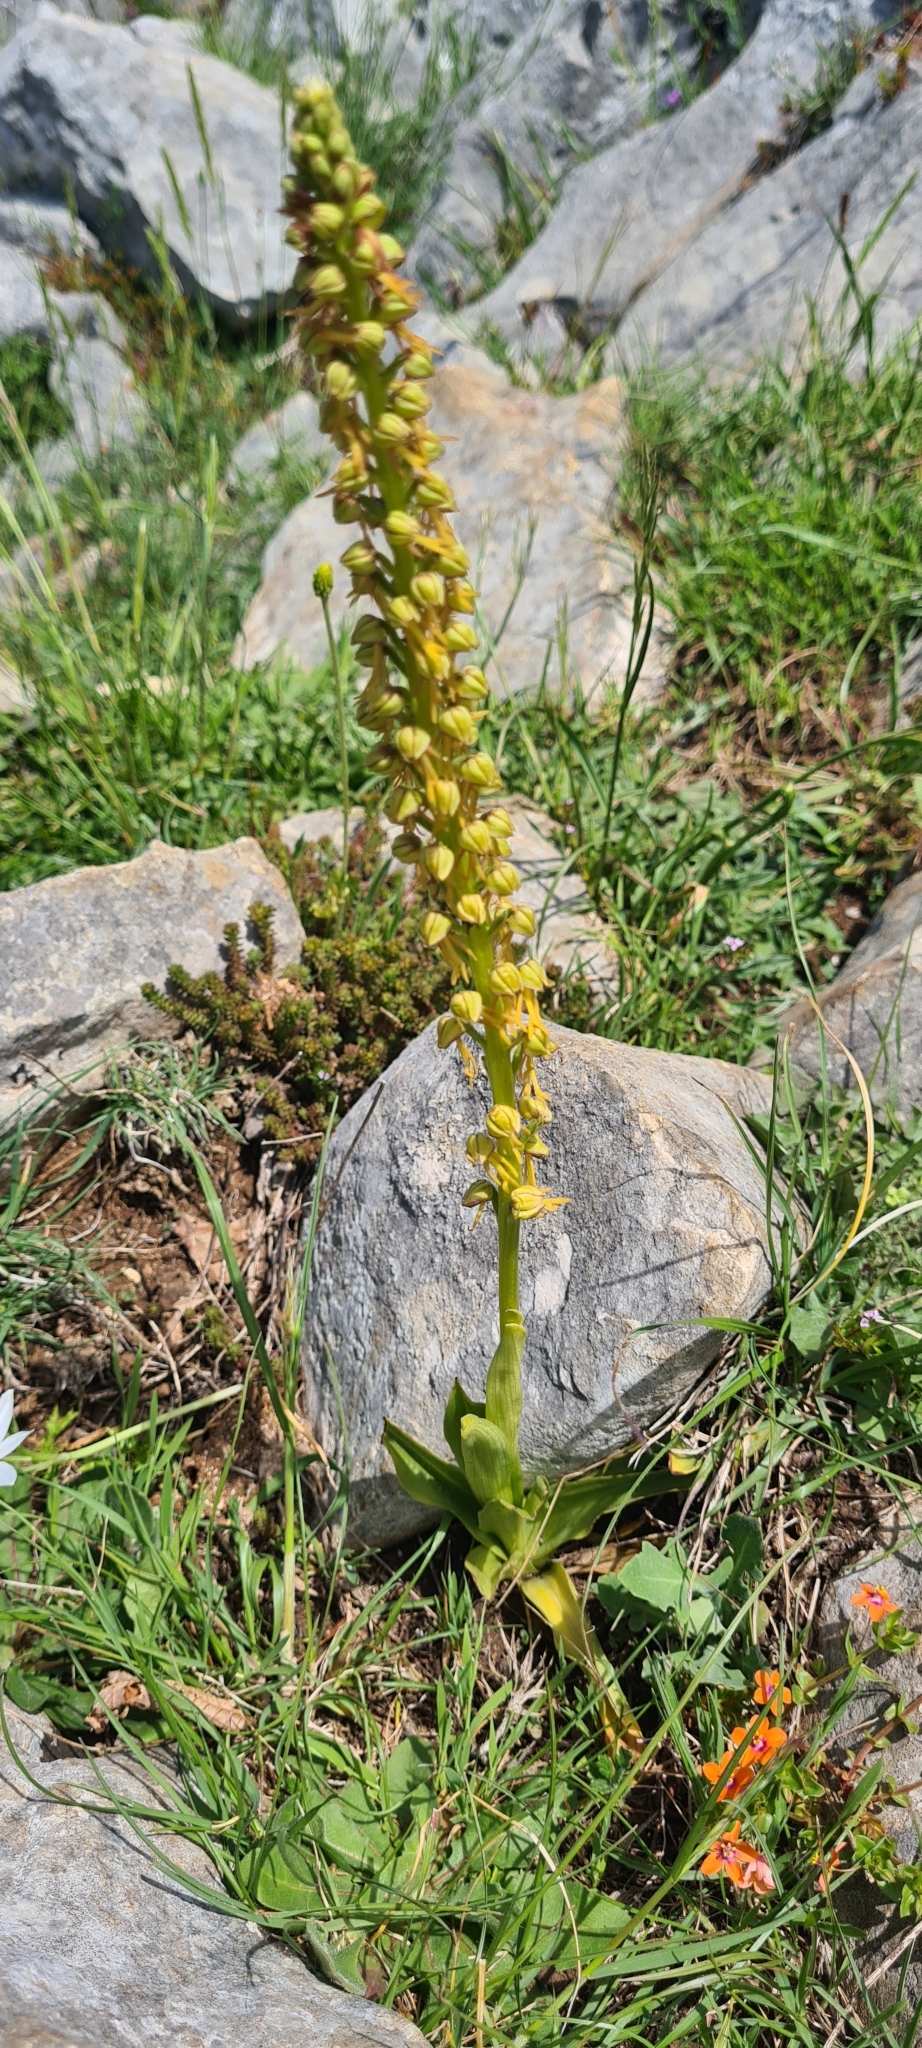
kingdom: Plantae
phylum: Tracheophyta
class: Liliopsida
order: Asparagales
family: Orchidaceae
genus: Orchis
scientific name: Orchis anthropophora
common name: Man orchid
